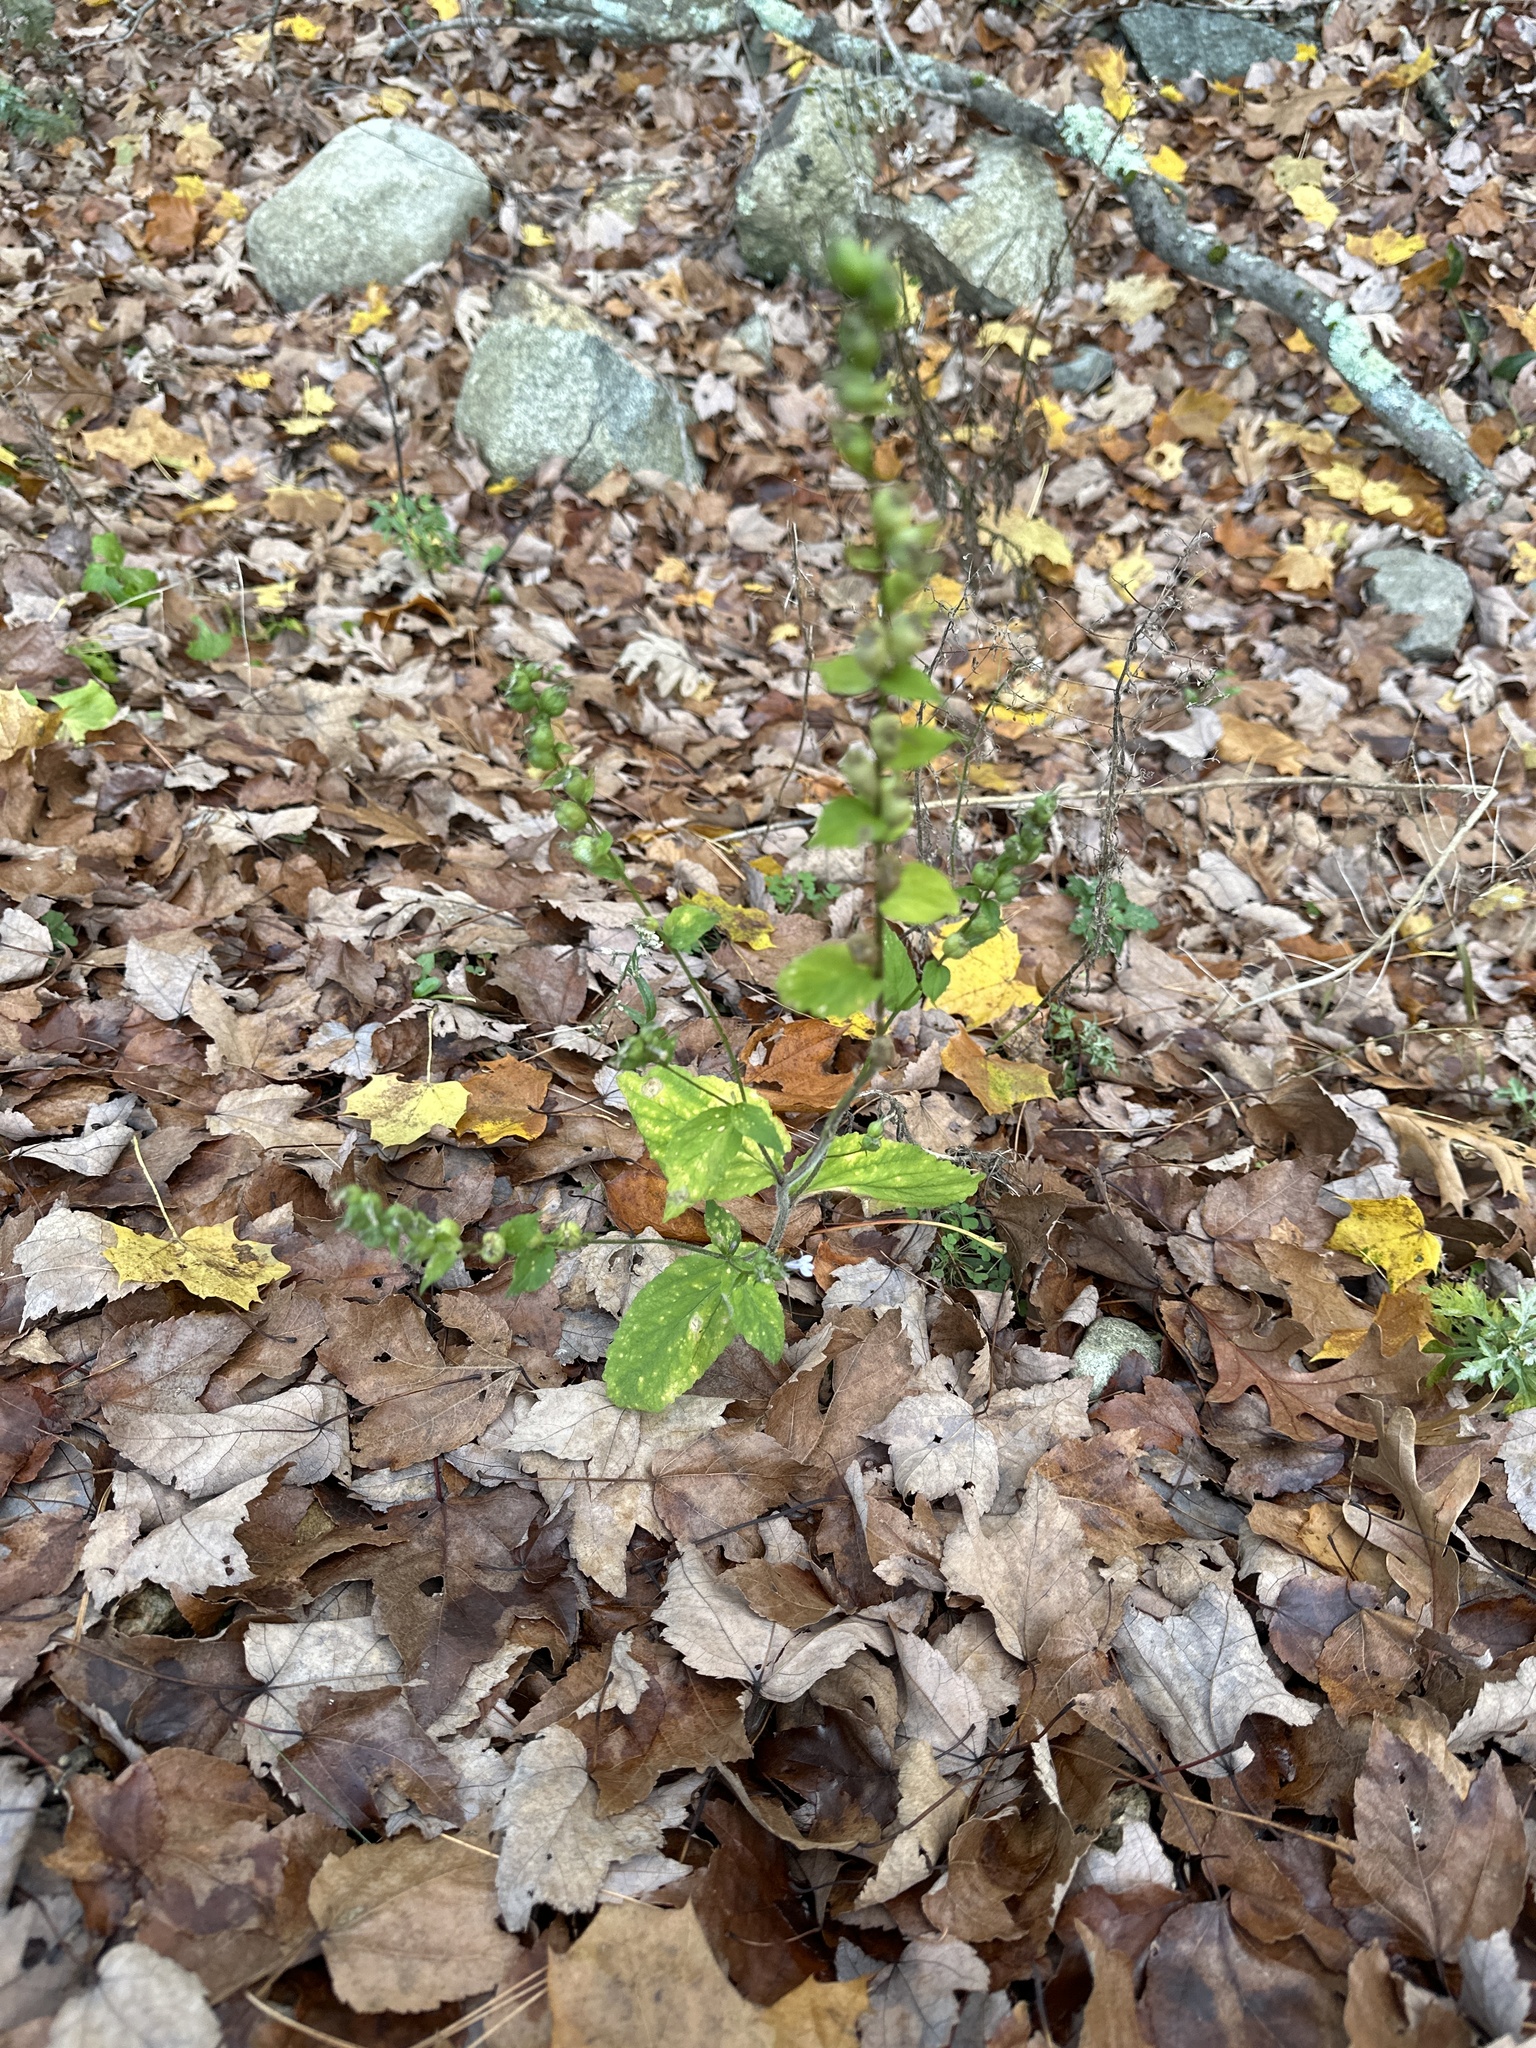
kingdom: Plantae
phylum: Tracheophyta
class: Magnoliopsida
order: Asterales
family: Campanulaceae
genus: Lobelia
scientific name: Lobelia inflata
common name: Indian tobacco
